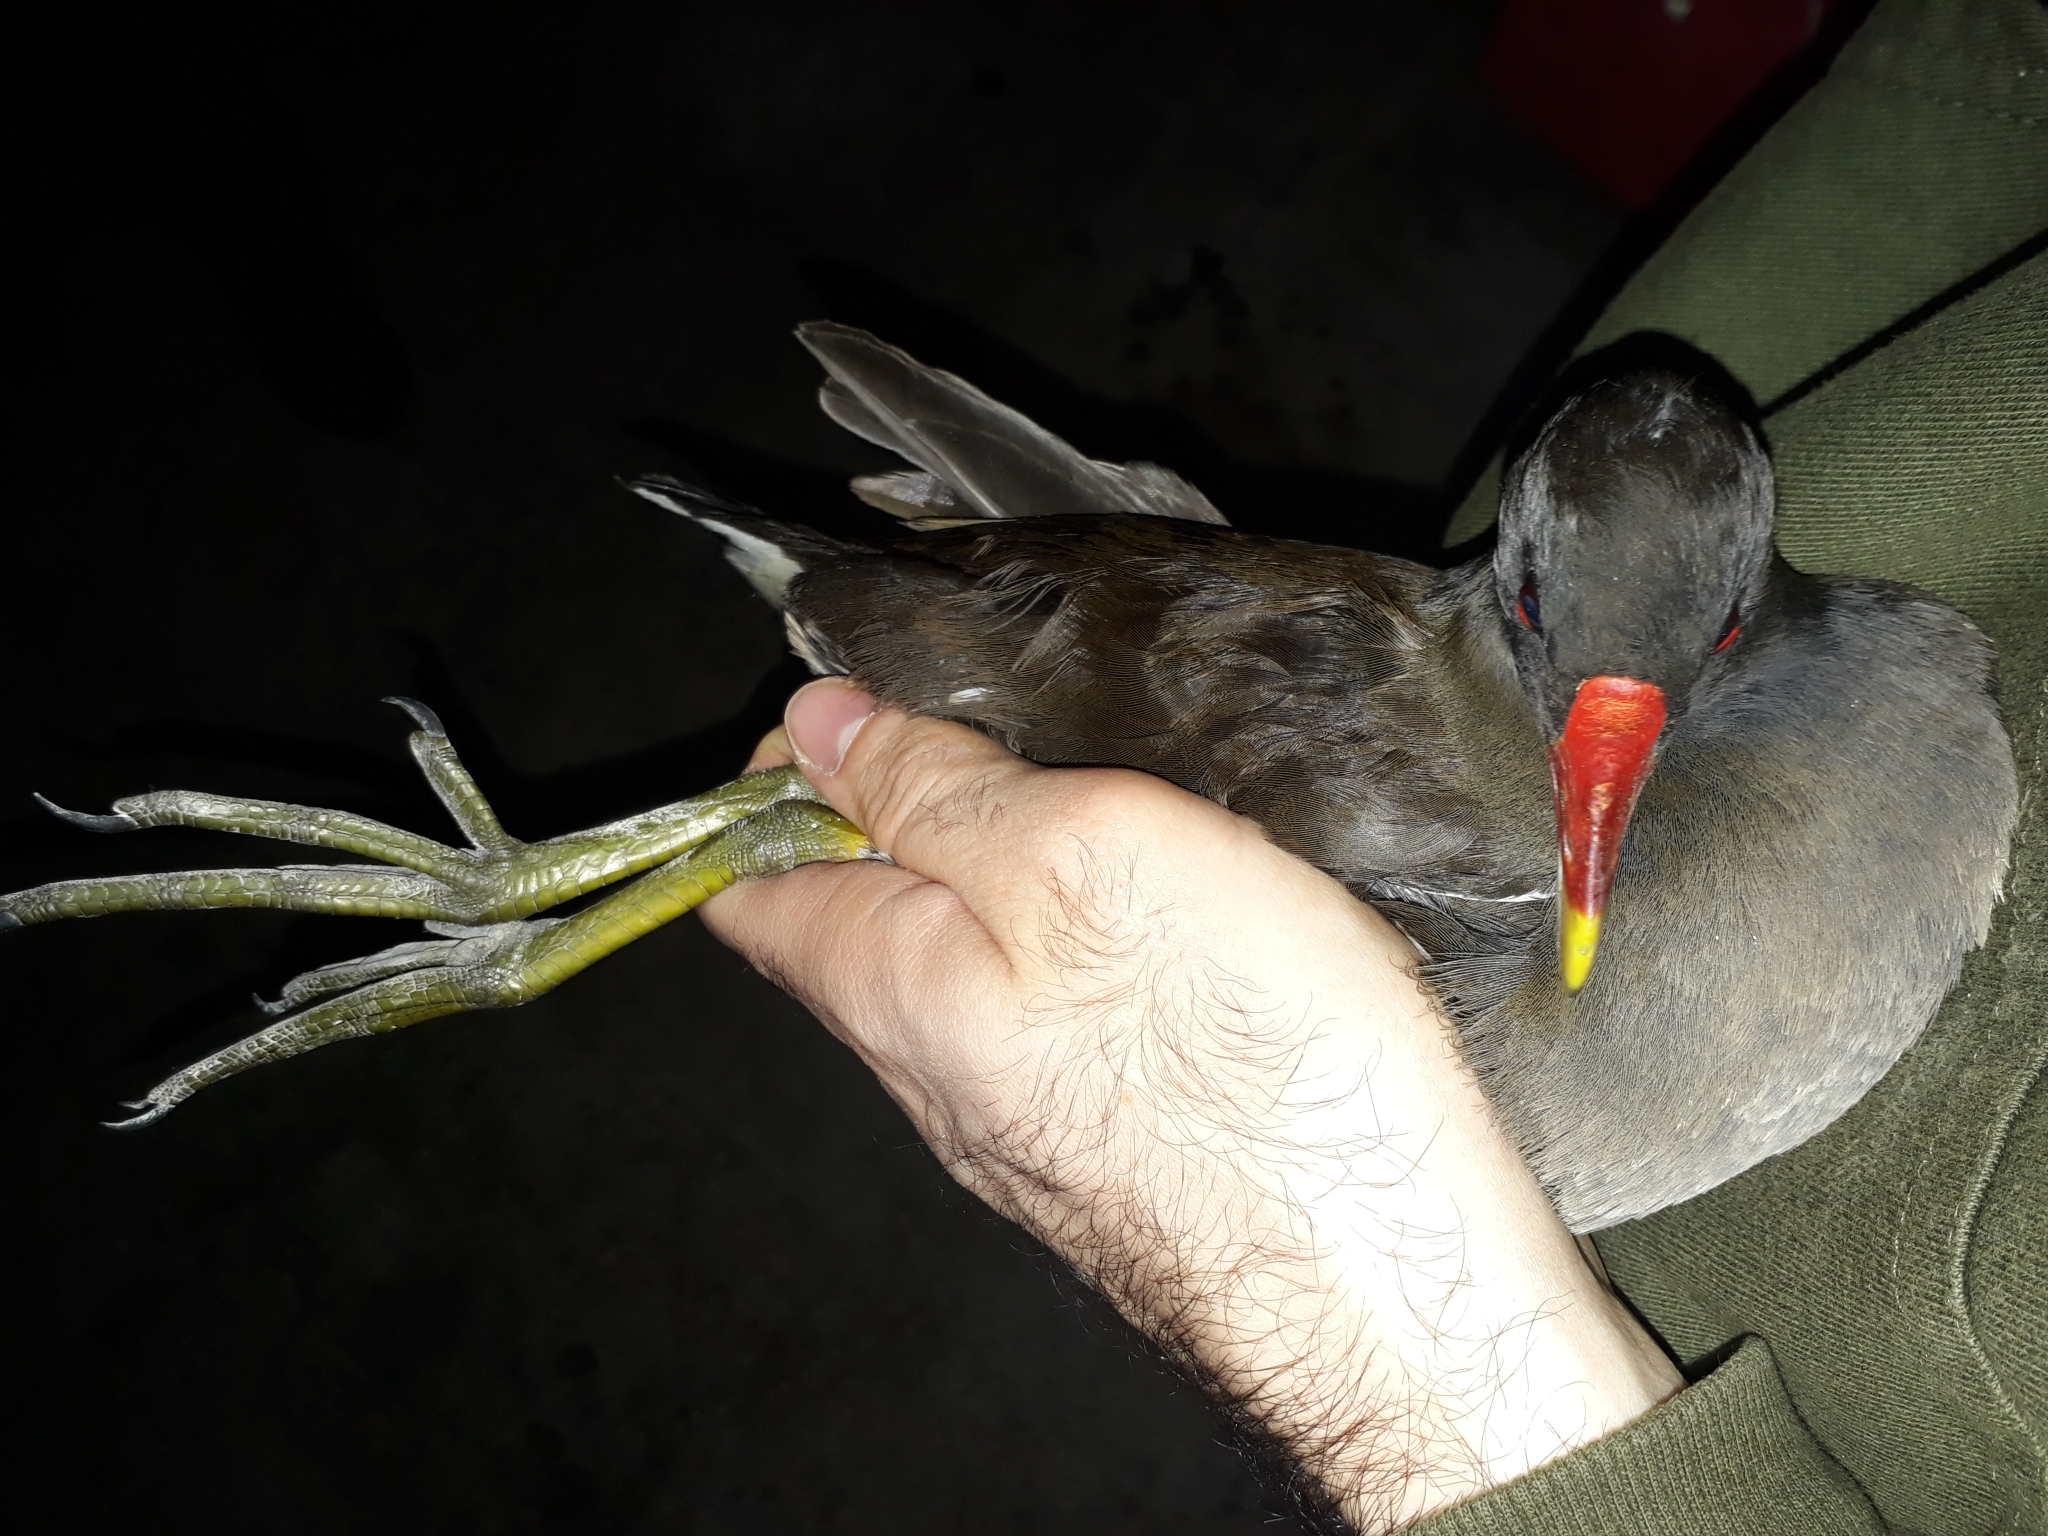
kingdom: Animalia
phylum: Chordata
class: Aves
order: Gruiformes
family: Rallidae
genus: Gallinula
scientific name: Gallinula chloropus
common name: Common moorhen
